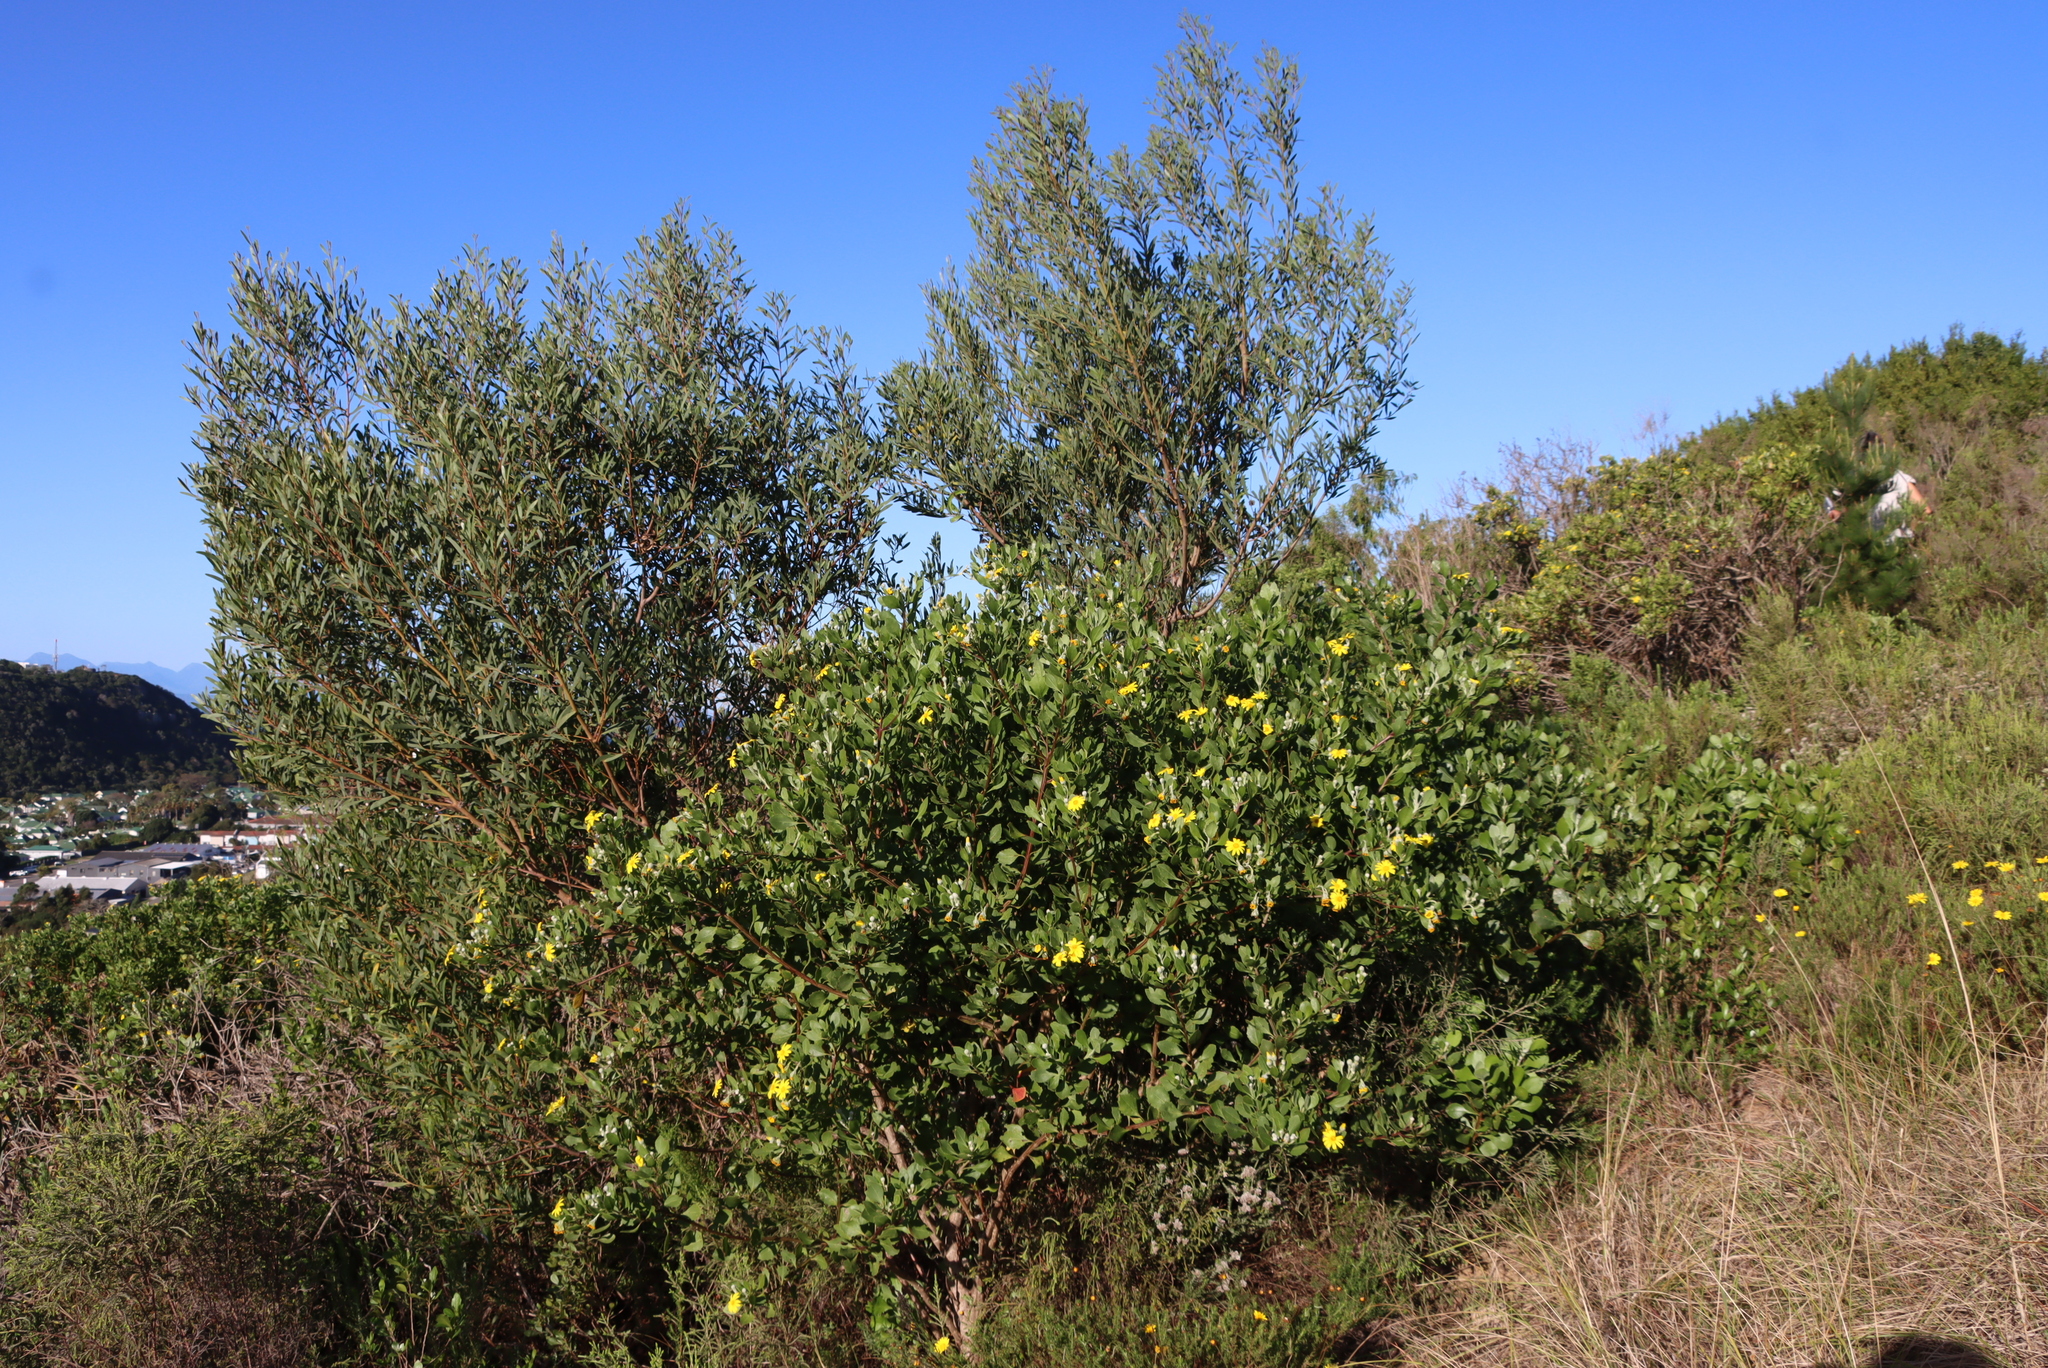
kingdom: Plantae
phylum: Tracheophyta
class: Magnoliopsida
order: Asterales
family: Asteraceae
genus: Osteospermum
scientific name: Osteospermum moniliferum
